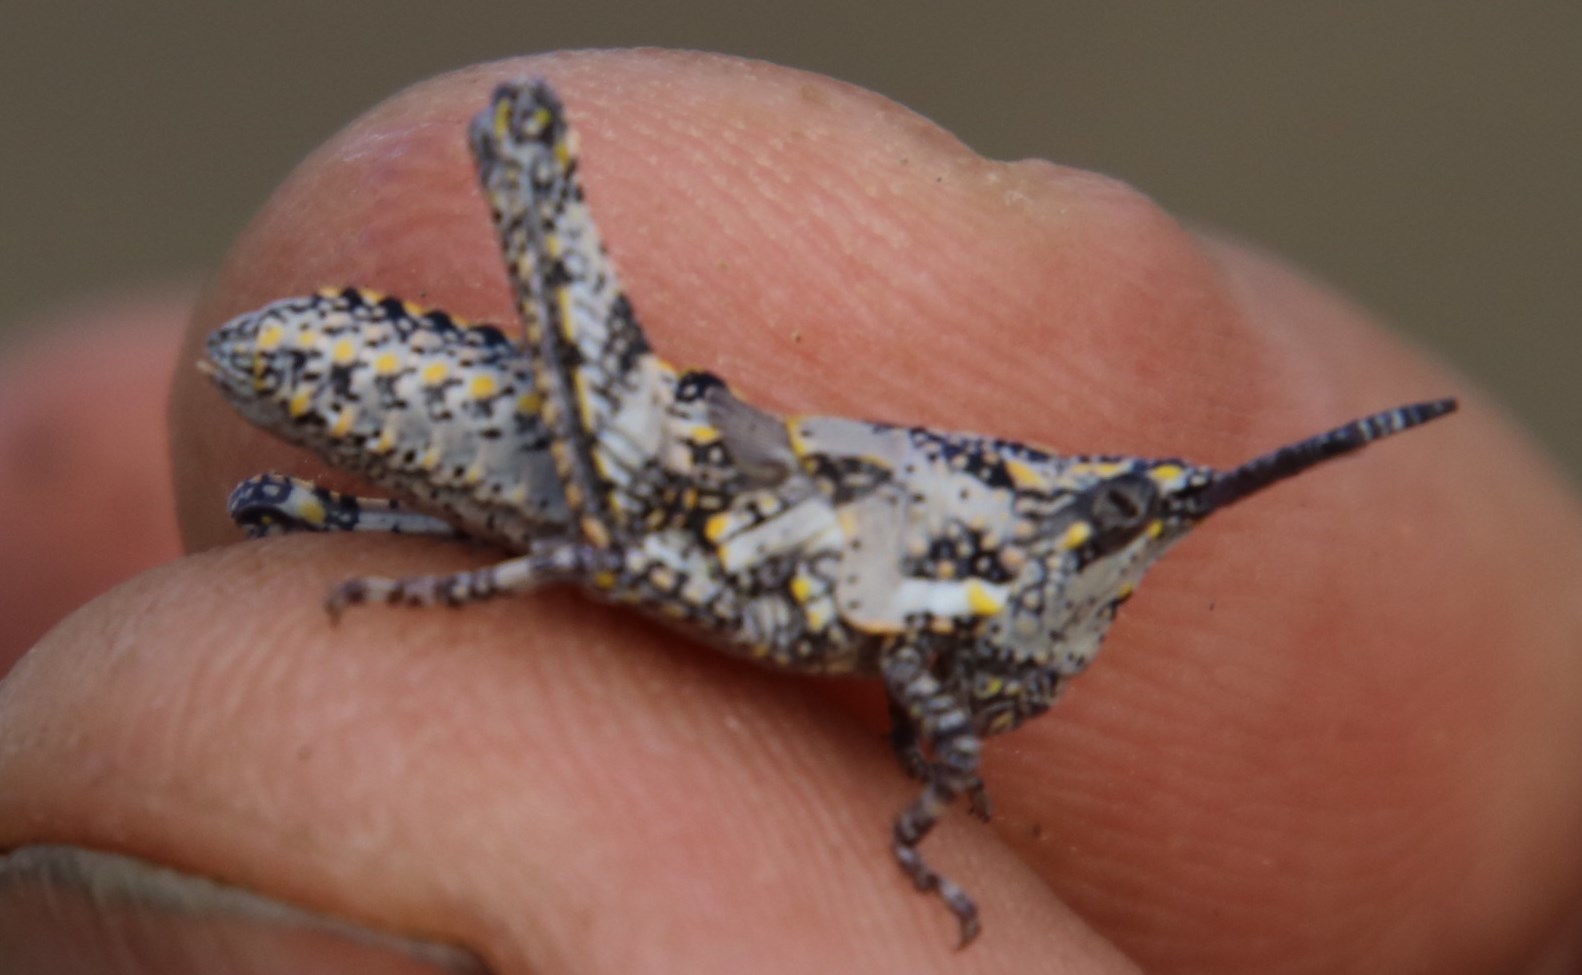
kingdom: Animalia
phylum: Arthropoda
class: Insecta
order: Orthoptera
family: Pyrgomorphidae
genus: Ochrophlebia
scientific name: Ochrophlebia cafra
